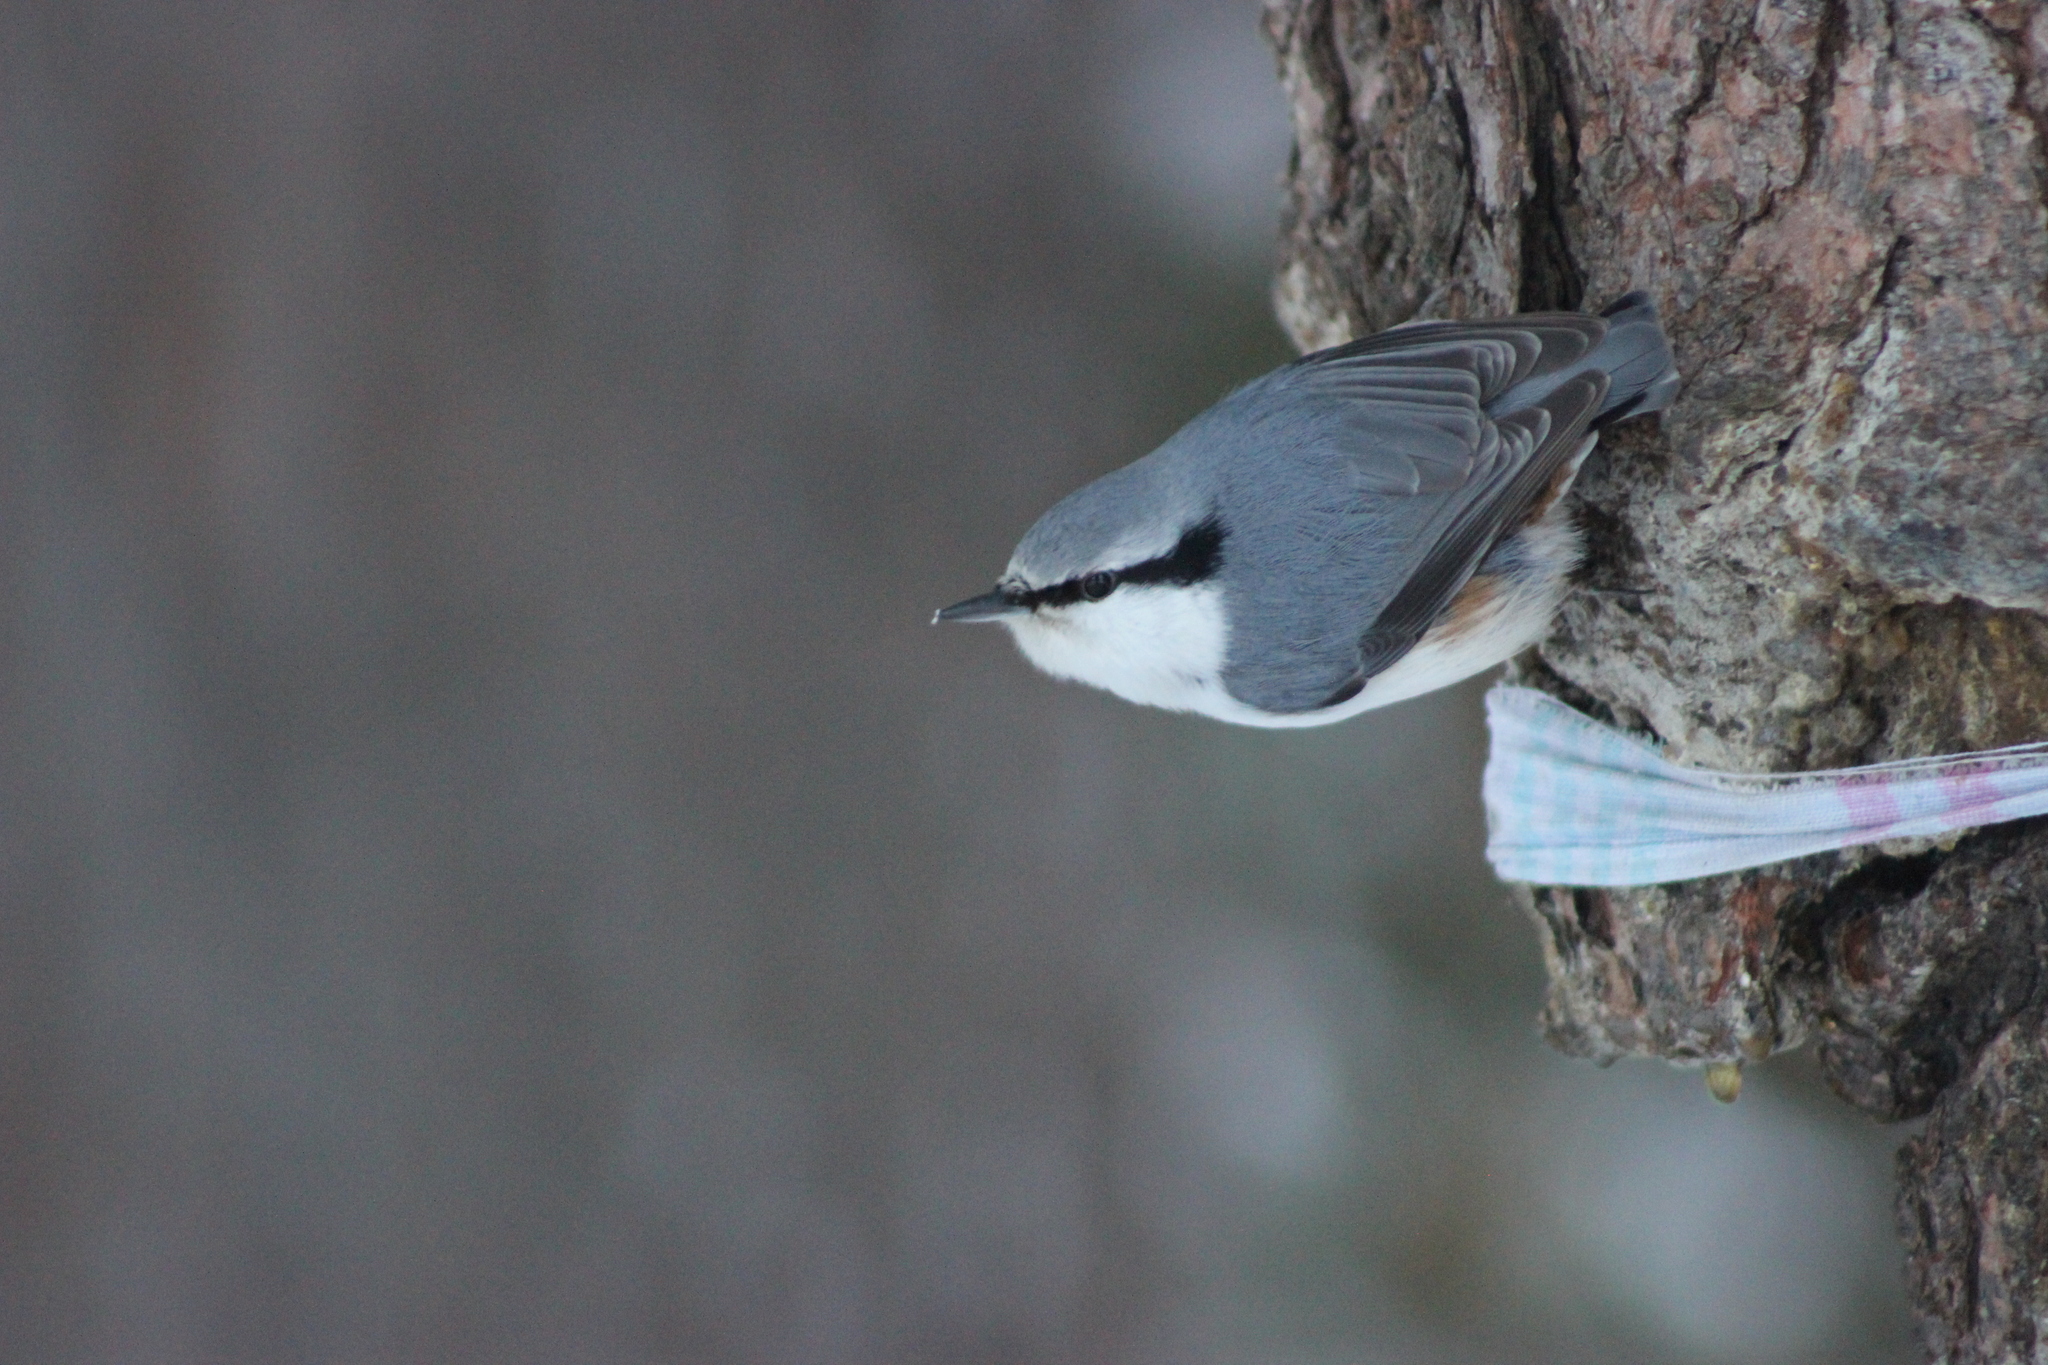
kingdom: Animalia
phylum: Chordata
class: Aves
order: Passeriformes
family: Sittidae
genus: Sitta
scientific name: Sitta europaea
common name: Eurasian nuthatch
